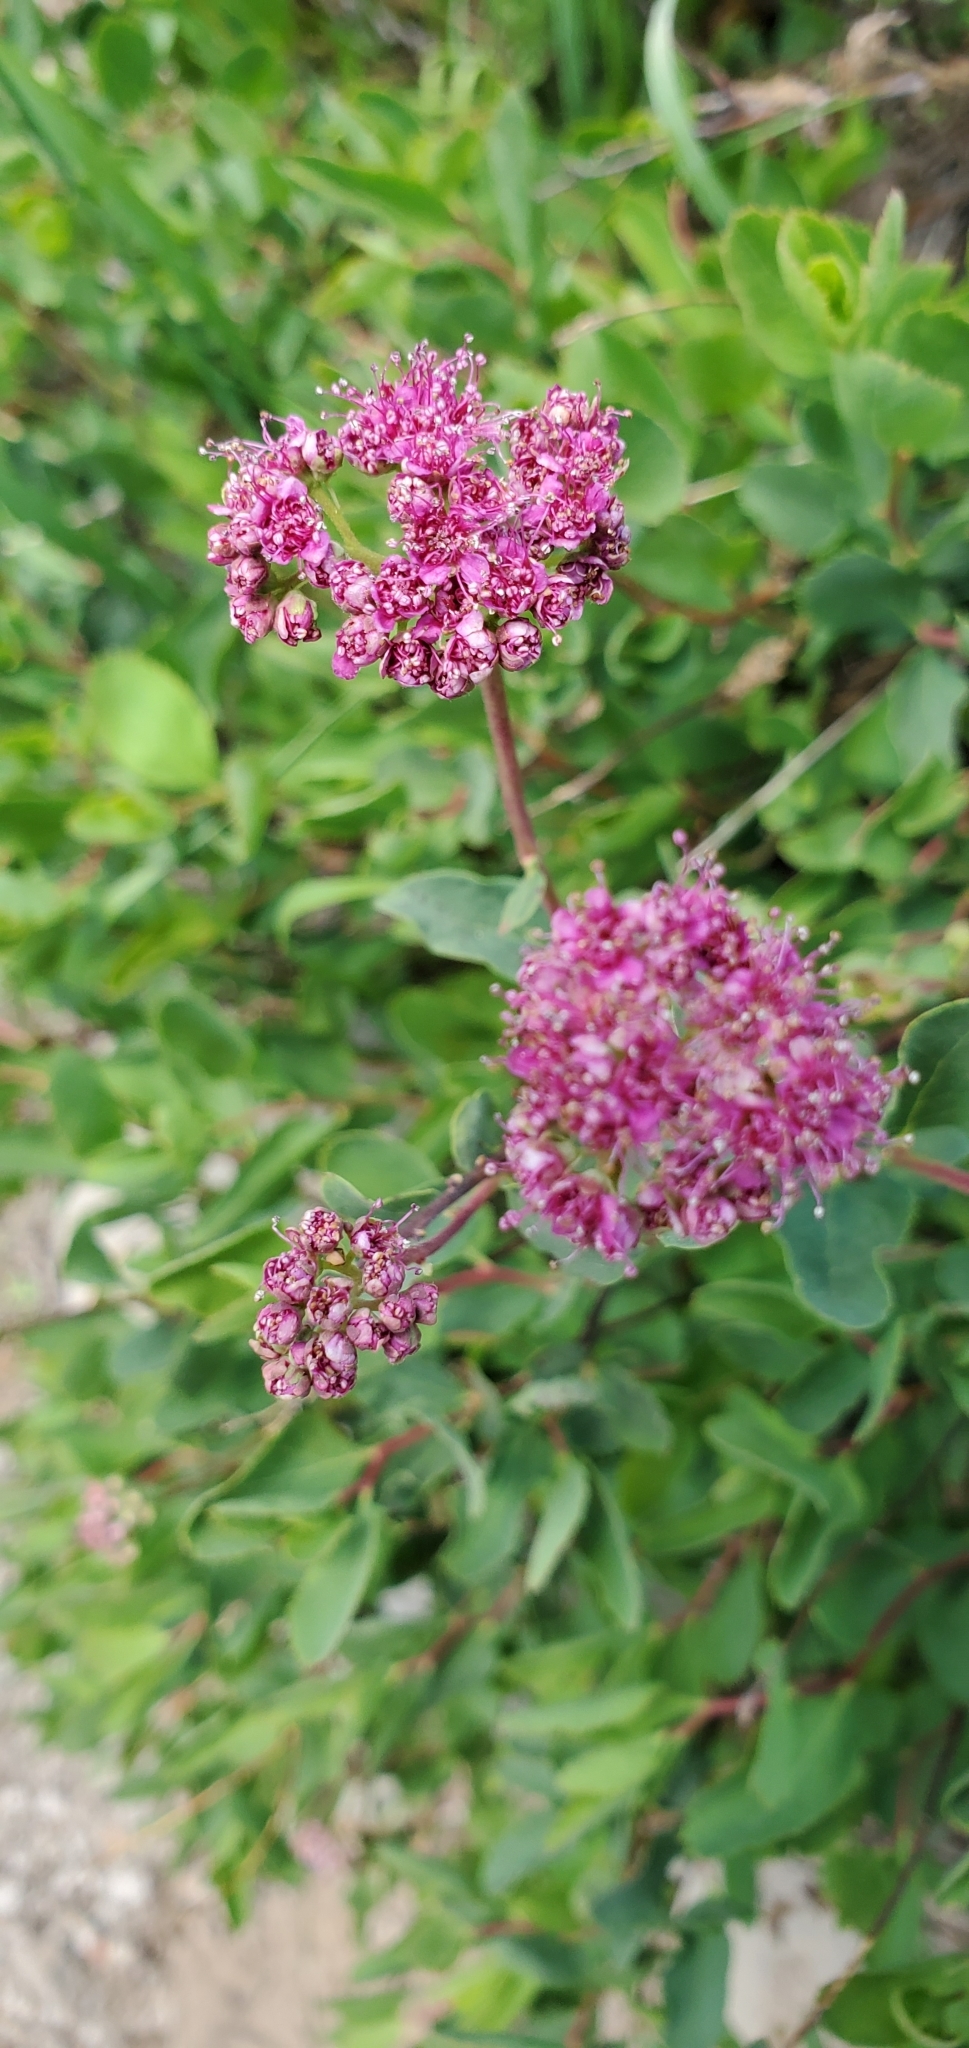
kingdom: Plantae
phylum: Tracheophyta
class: Magnoliopsida
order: Rosales
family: Rosaceae
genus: Spiraea
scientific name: Spiraea splendens
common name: Subalpine meadowsweet
